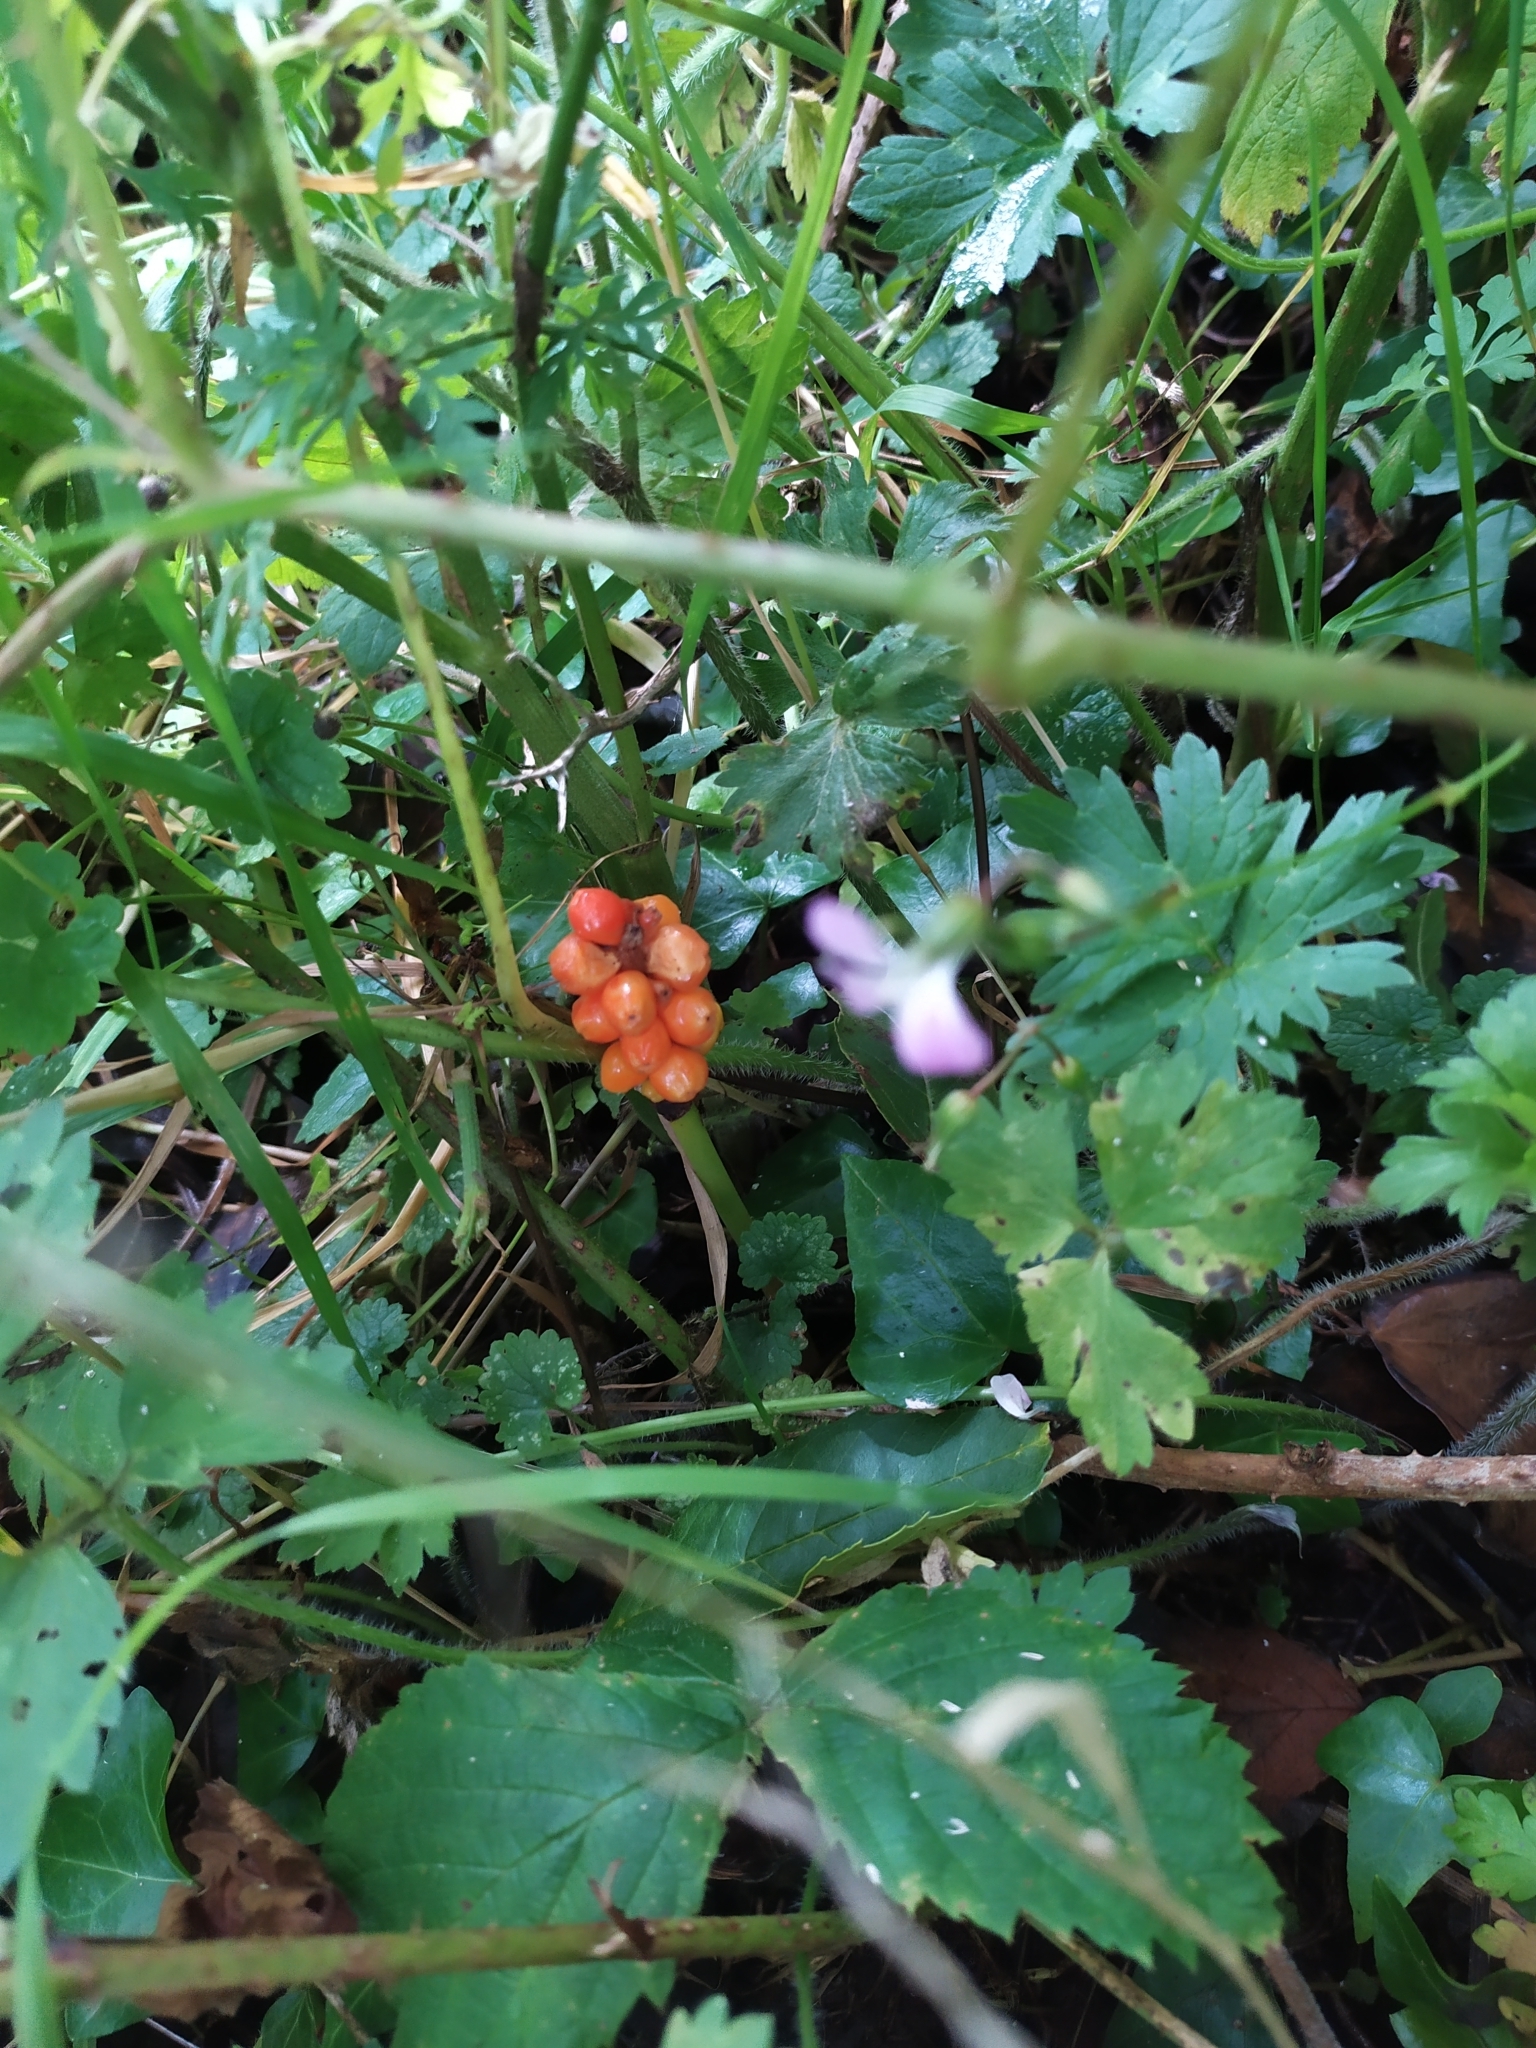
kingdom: Plantae
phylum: Tracheophyta
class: Liliopsida
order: Alismatales
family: Araceae
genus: Arum
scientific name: Arum maculatum
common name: Lords-and-ladies
